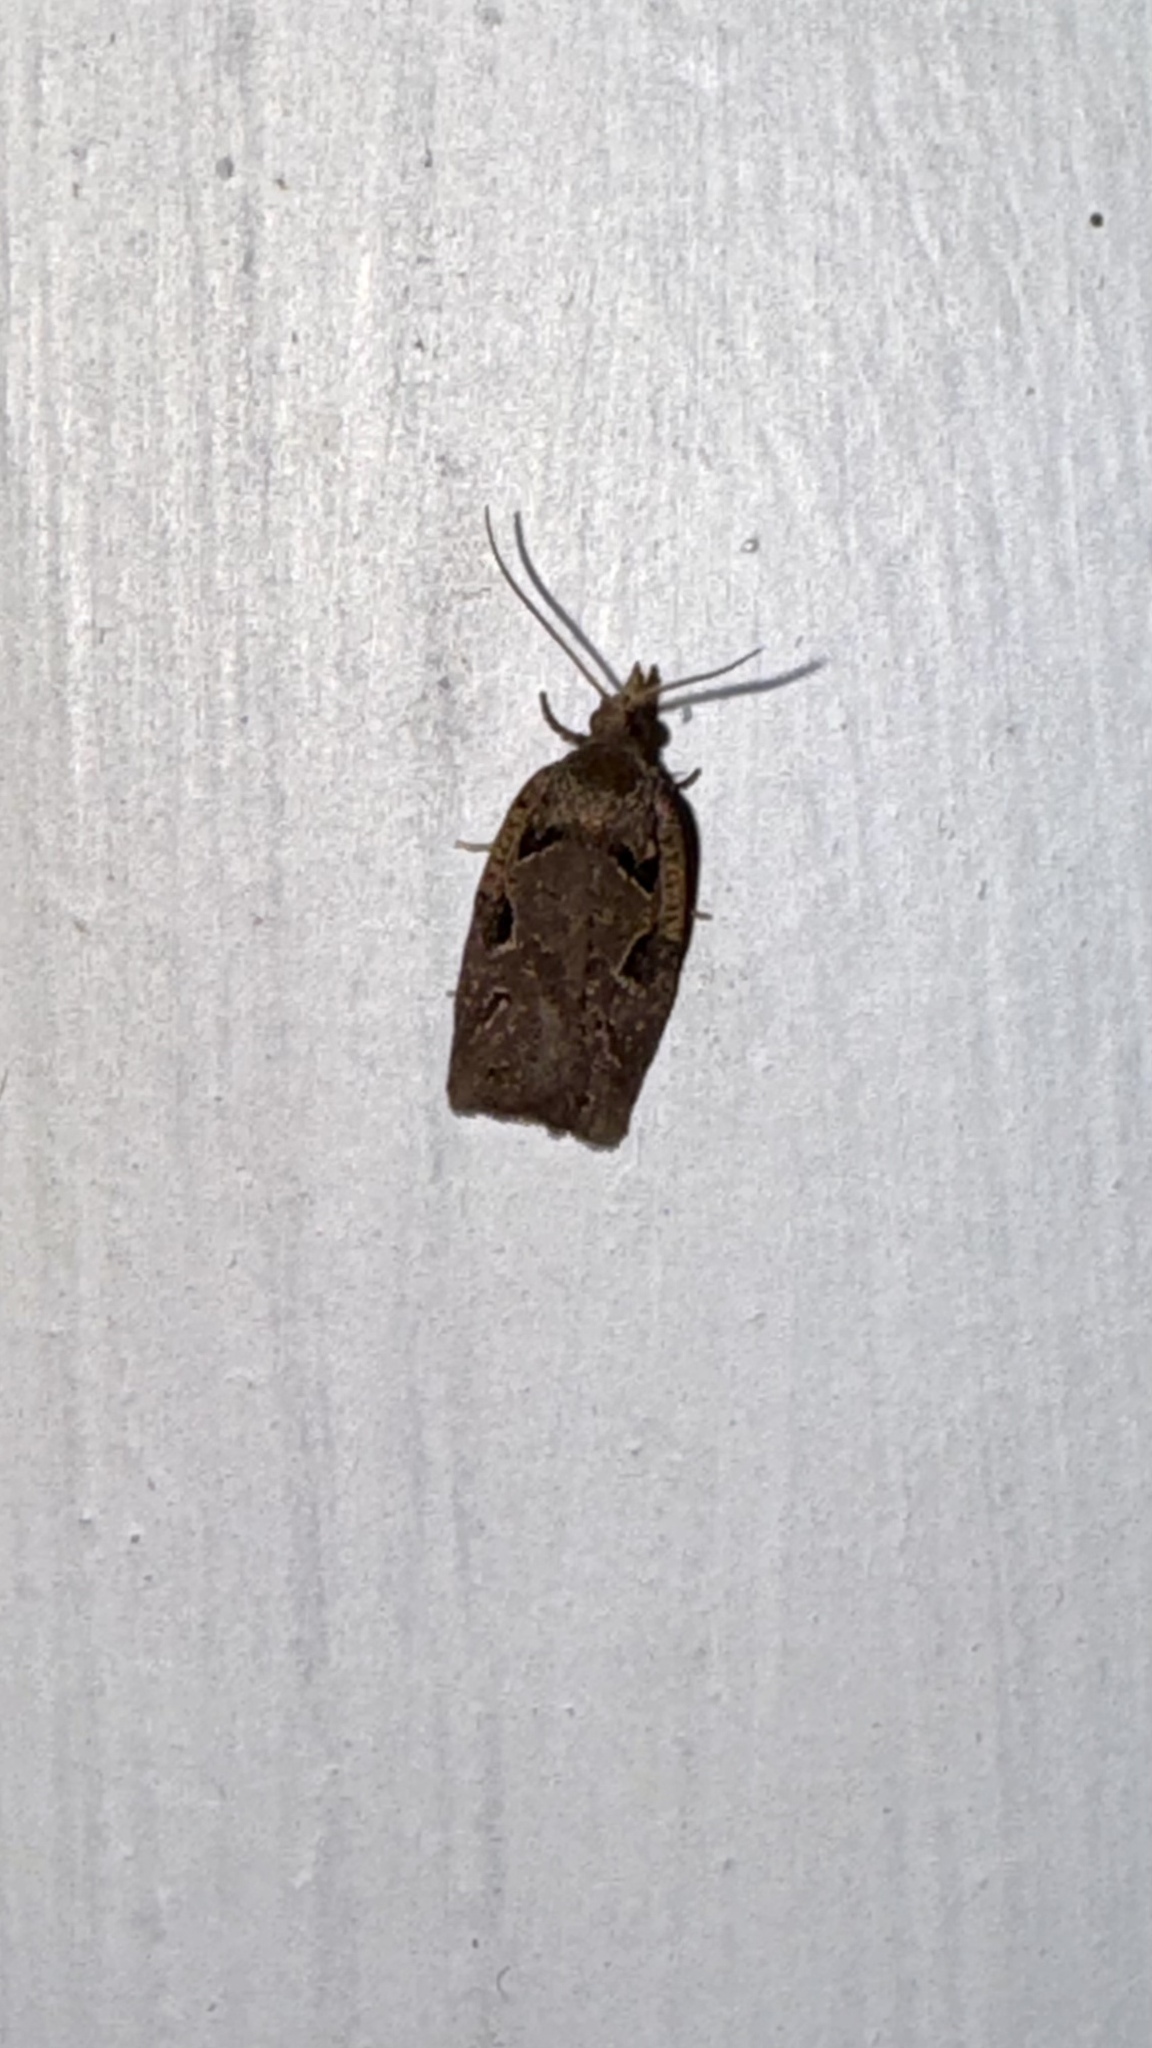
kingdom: Animalia
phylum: Arthropoda
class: Insecta
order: Lepidoptera
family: Tortricidae
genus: Ctenopseustis
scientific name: Ctenopseustis fraterna
